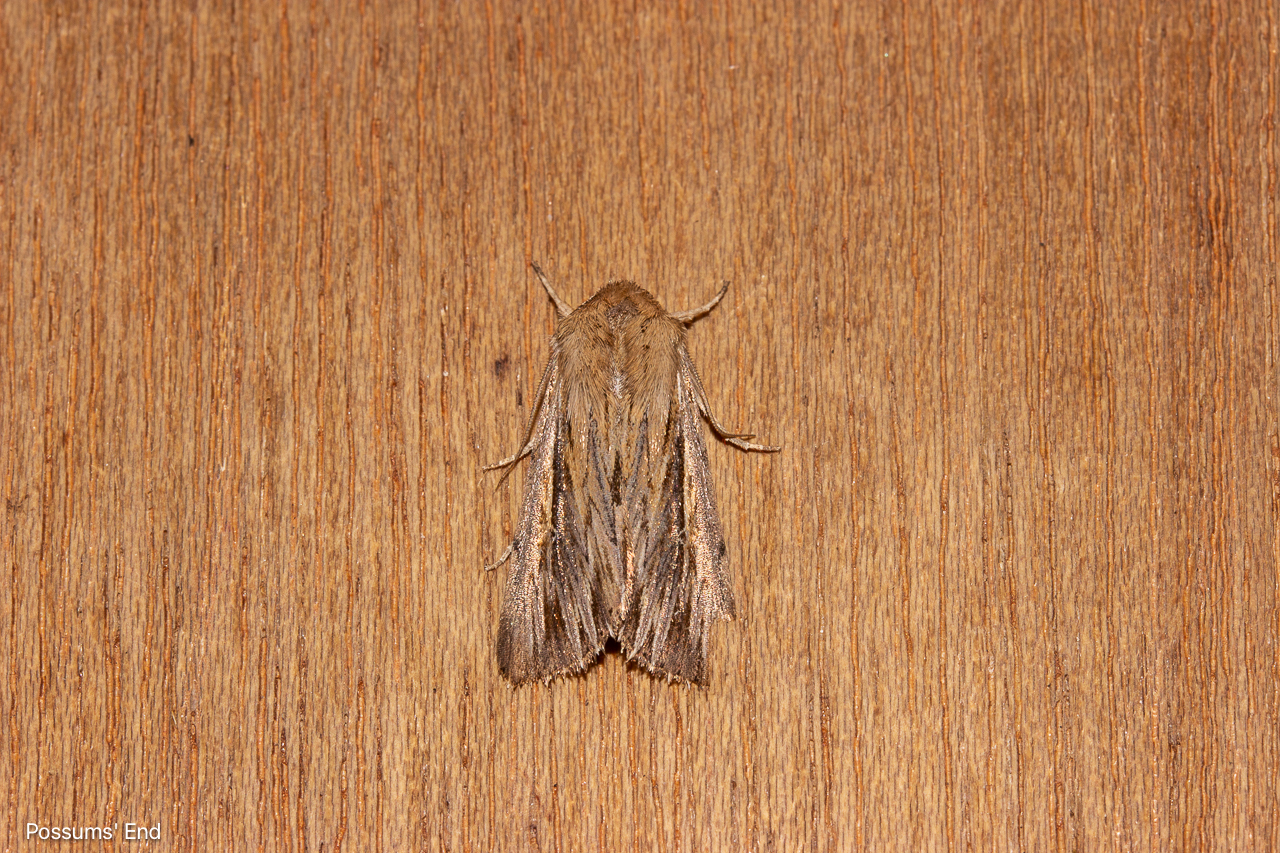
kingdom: Animalia
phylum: Arthropoda
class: Insecta
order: Lepidoptera
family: Noctuidae
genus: Persectania
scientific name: Persectania aversa
